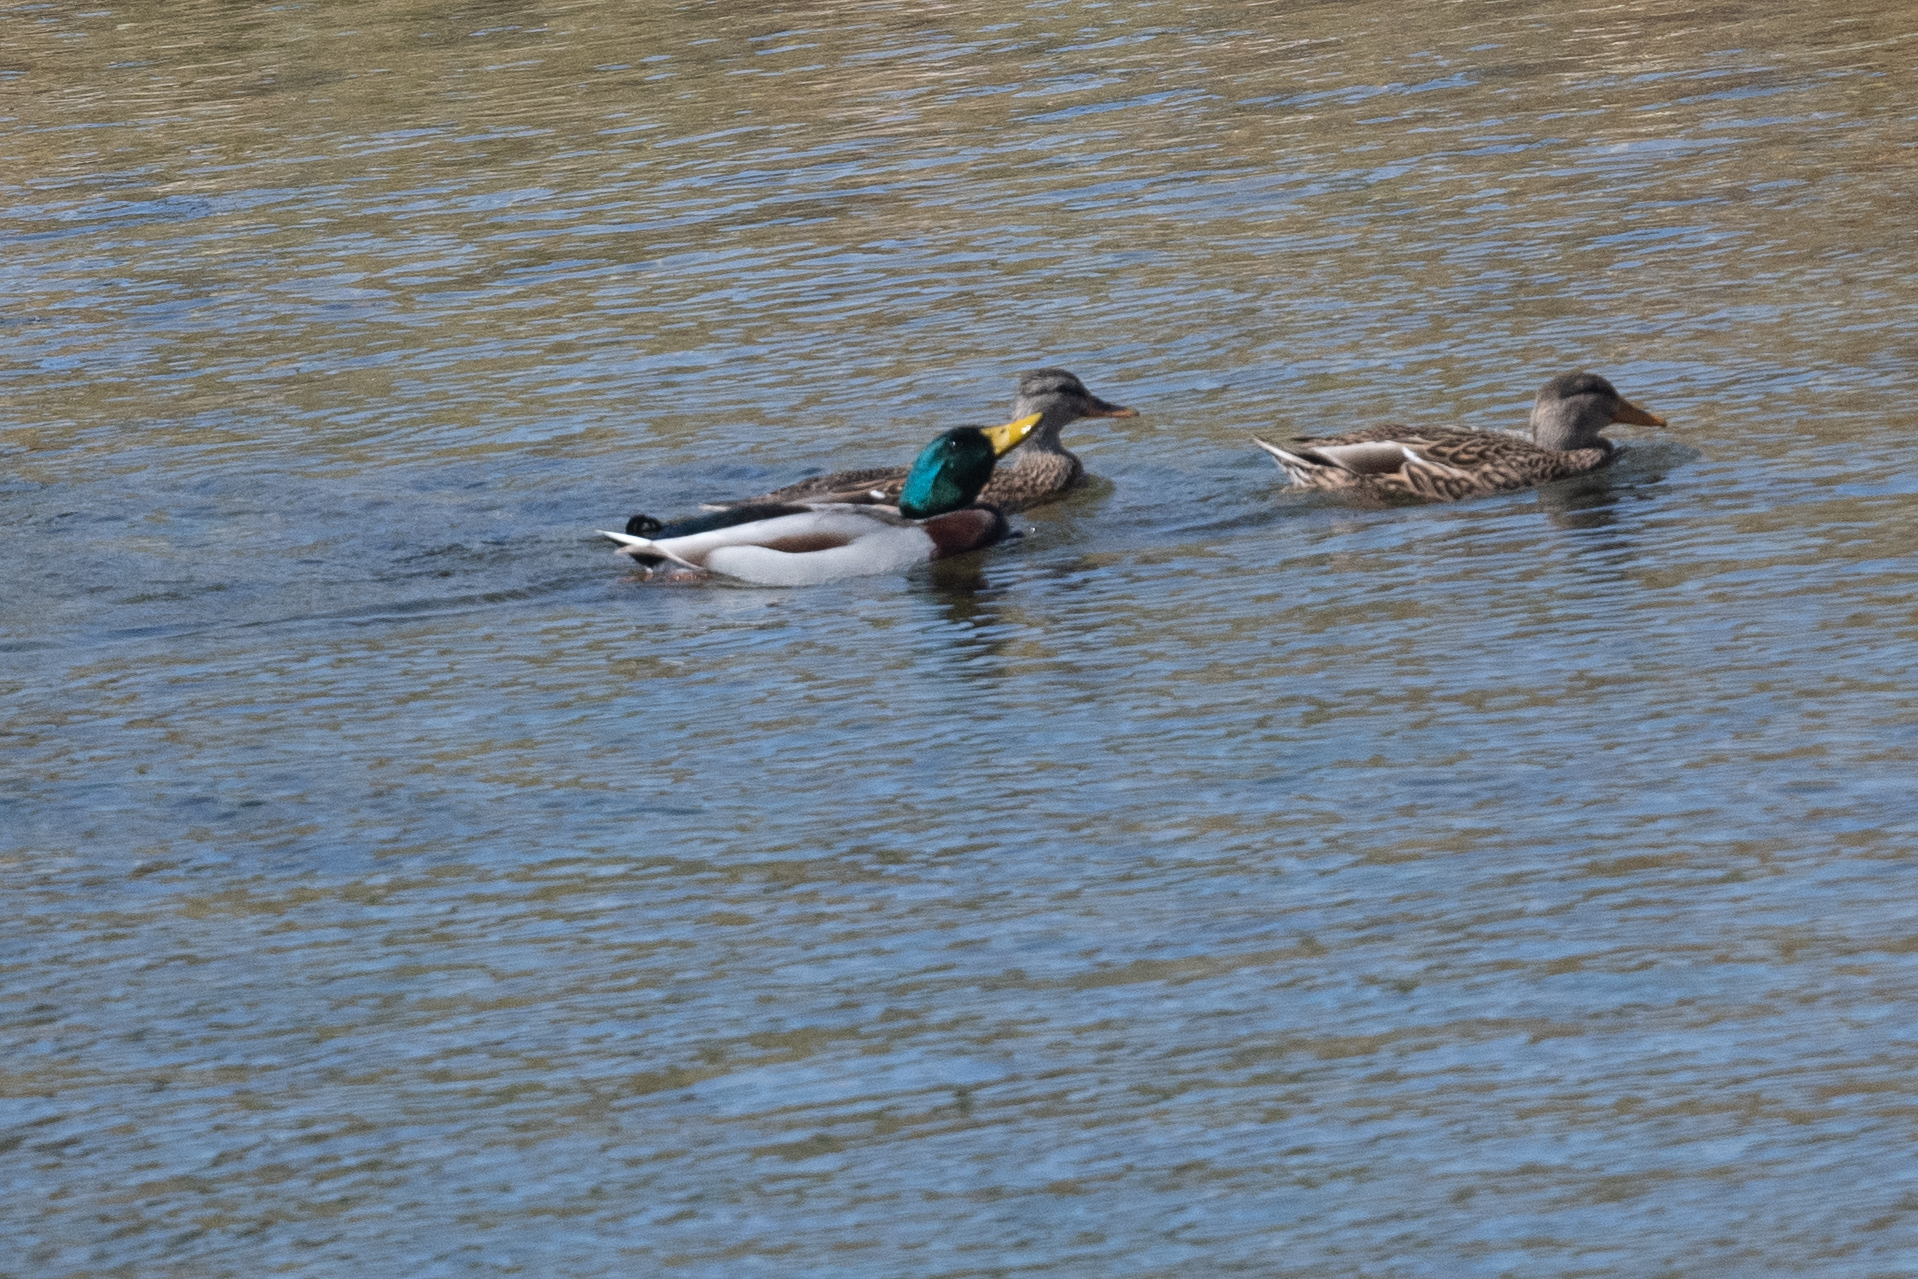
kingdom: Animalia
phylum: Chordata
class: Aves
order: Anseriformes
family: Anatidae
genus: Anas
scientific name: Anas platyrhynchos
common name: Mallard
